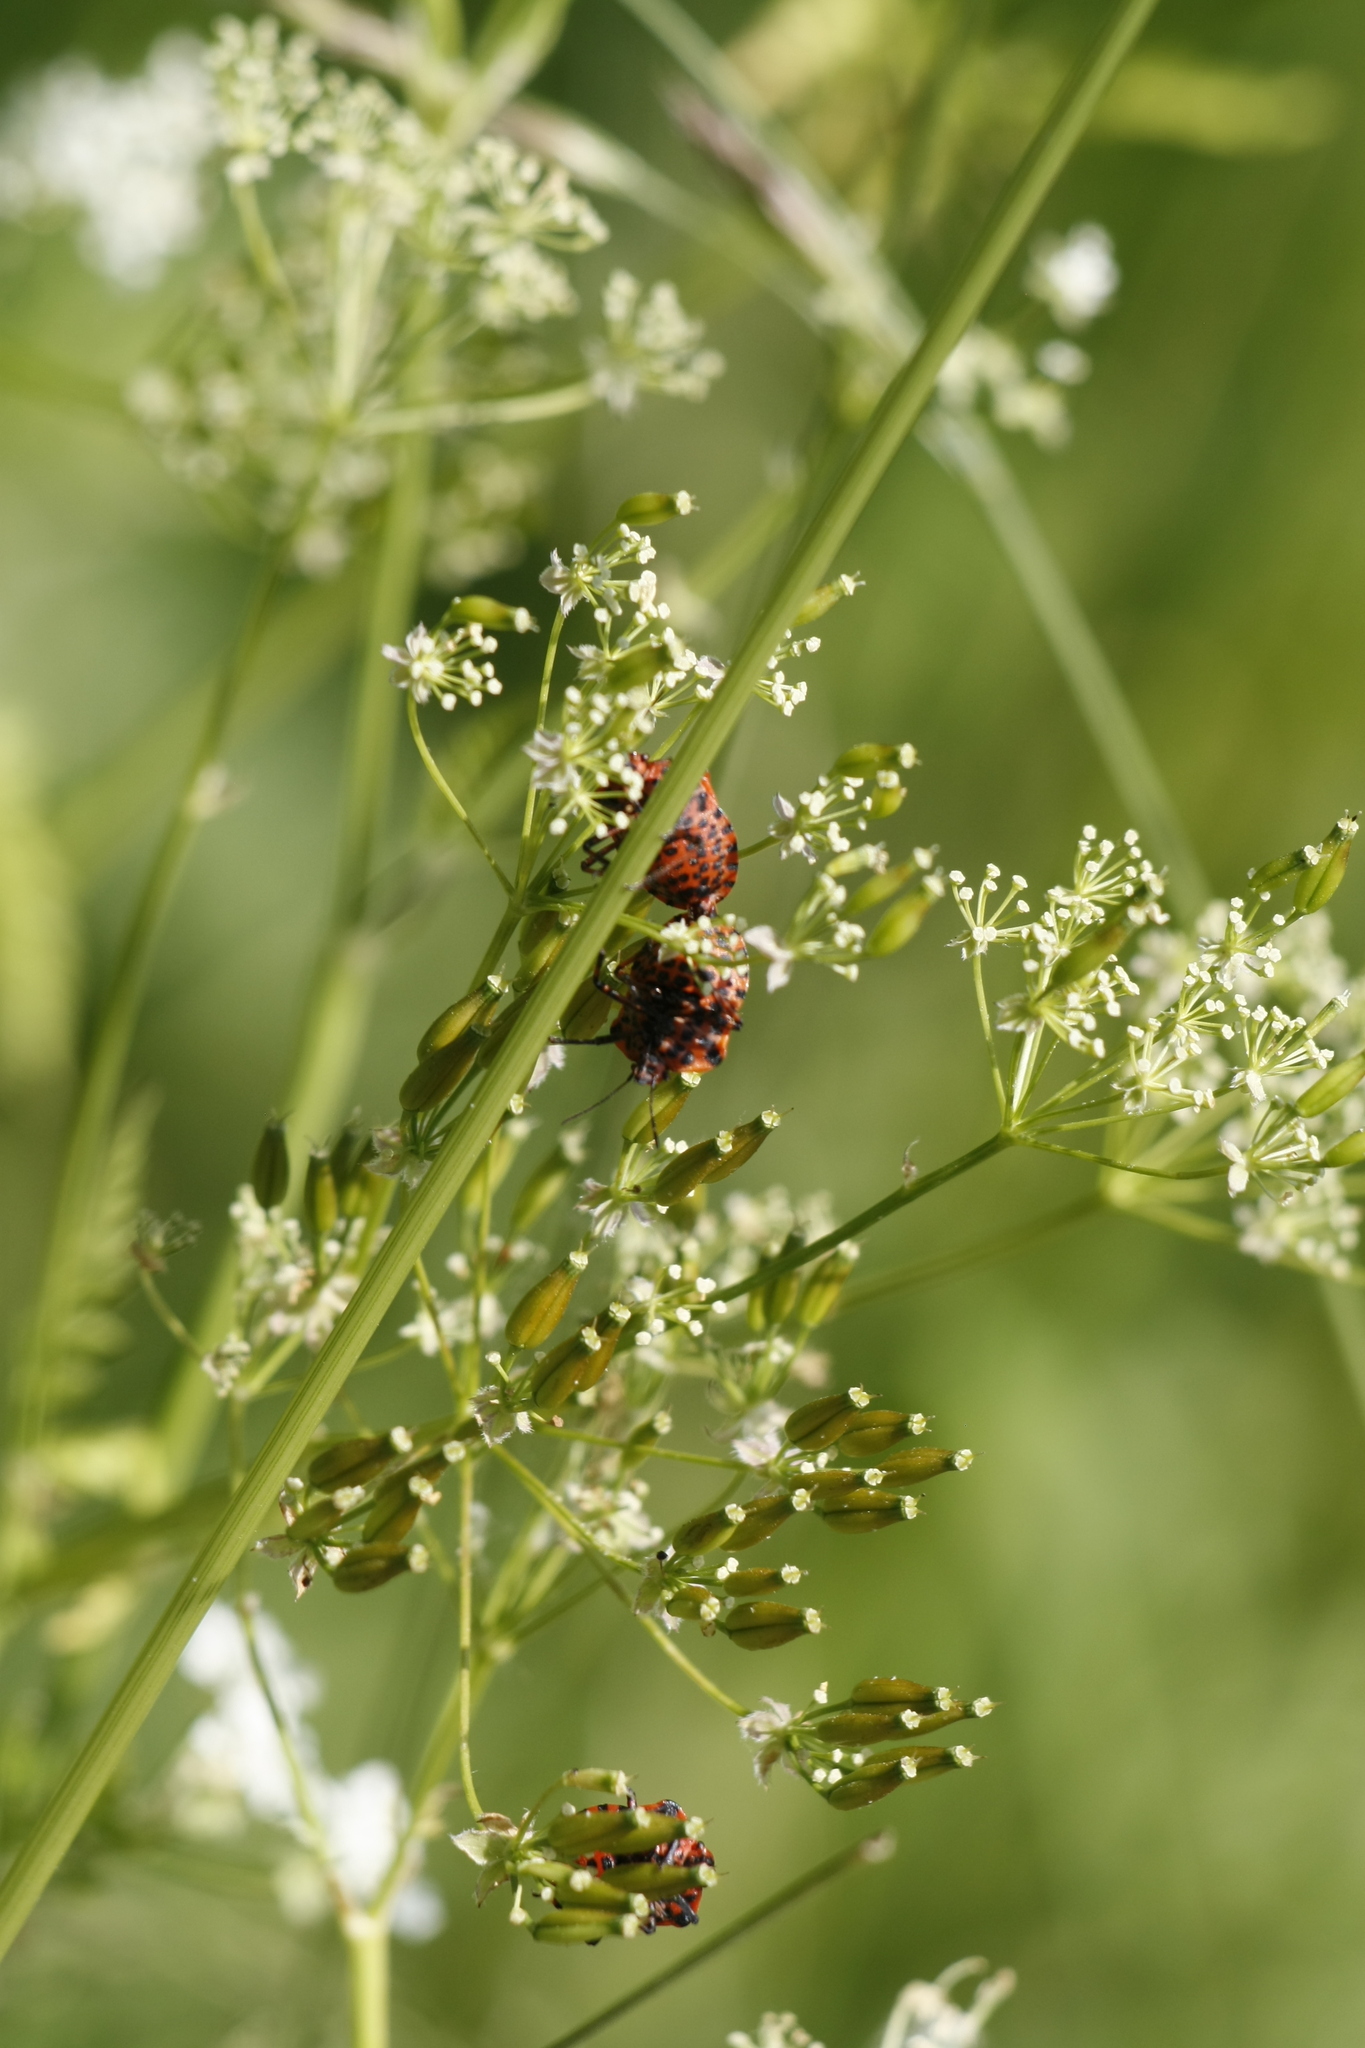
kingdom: Animalia
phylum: Arthropoda
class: Insecta
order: Hemiptera
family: Pentatomidae
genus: Graphosoma
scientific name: Graphosoma italicum
